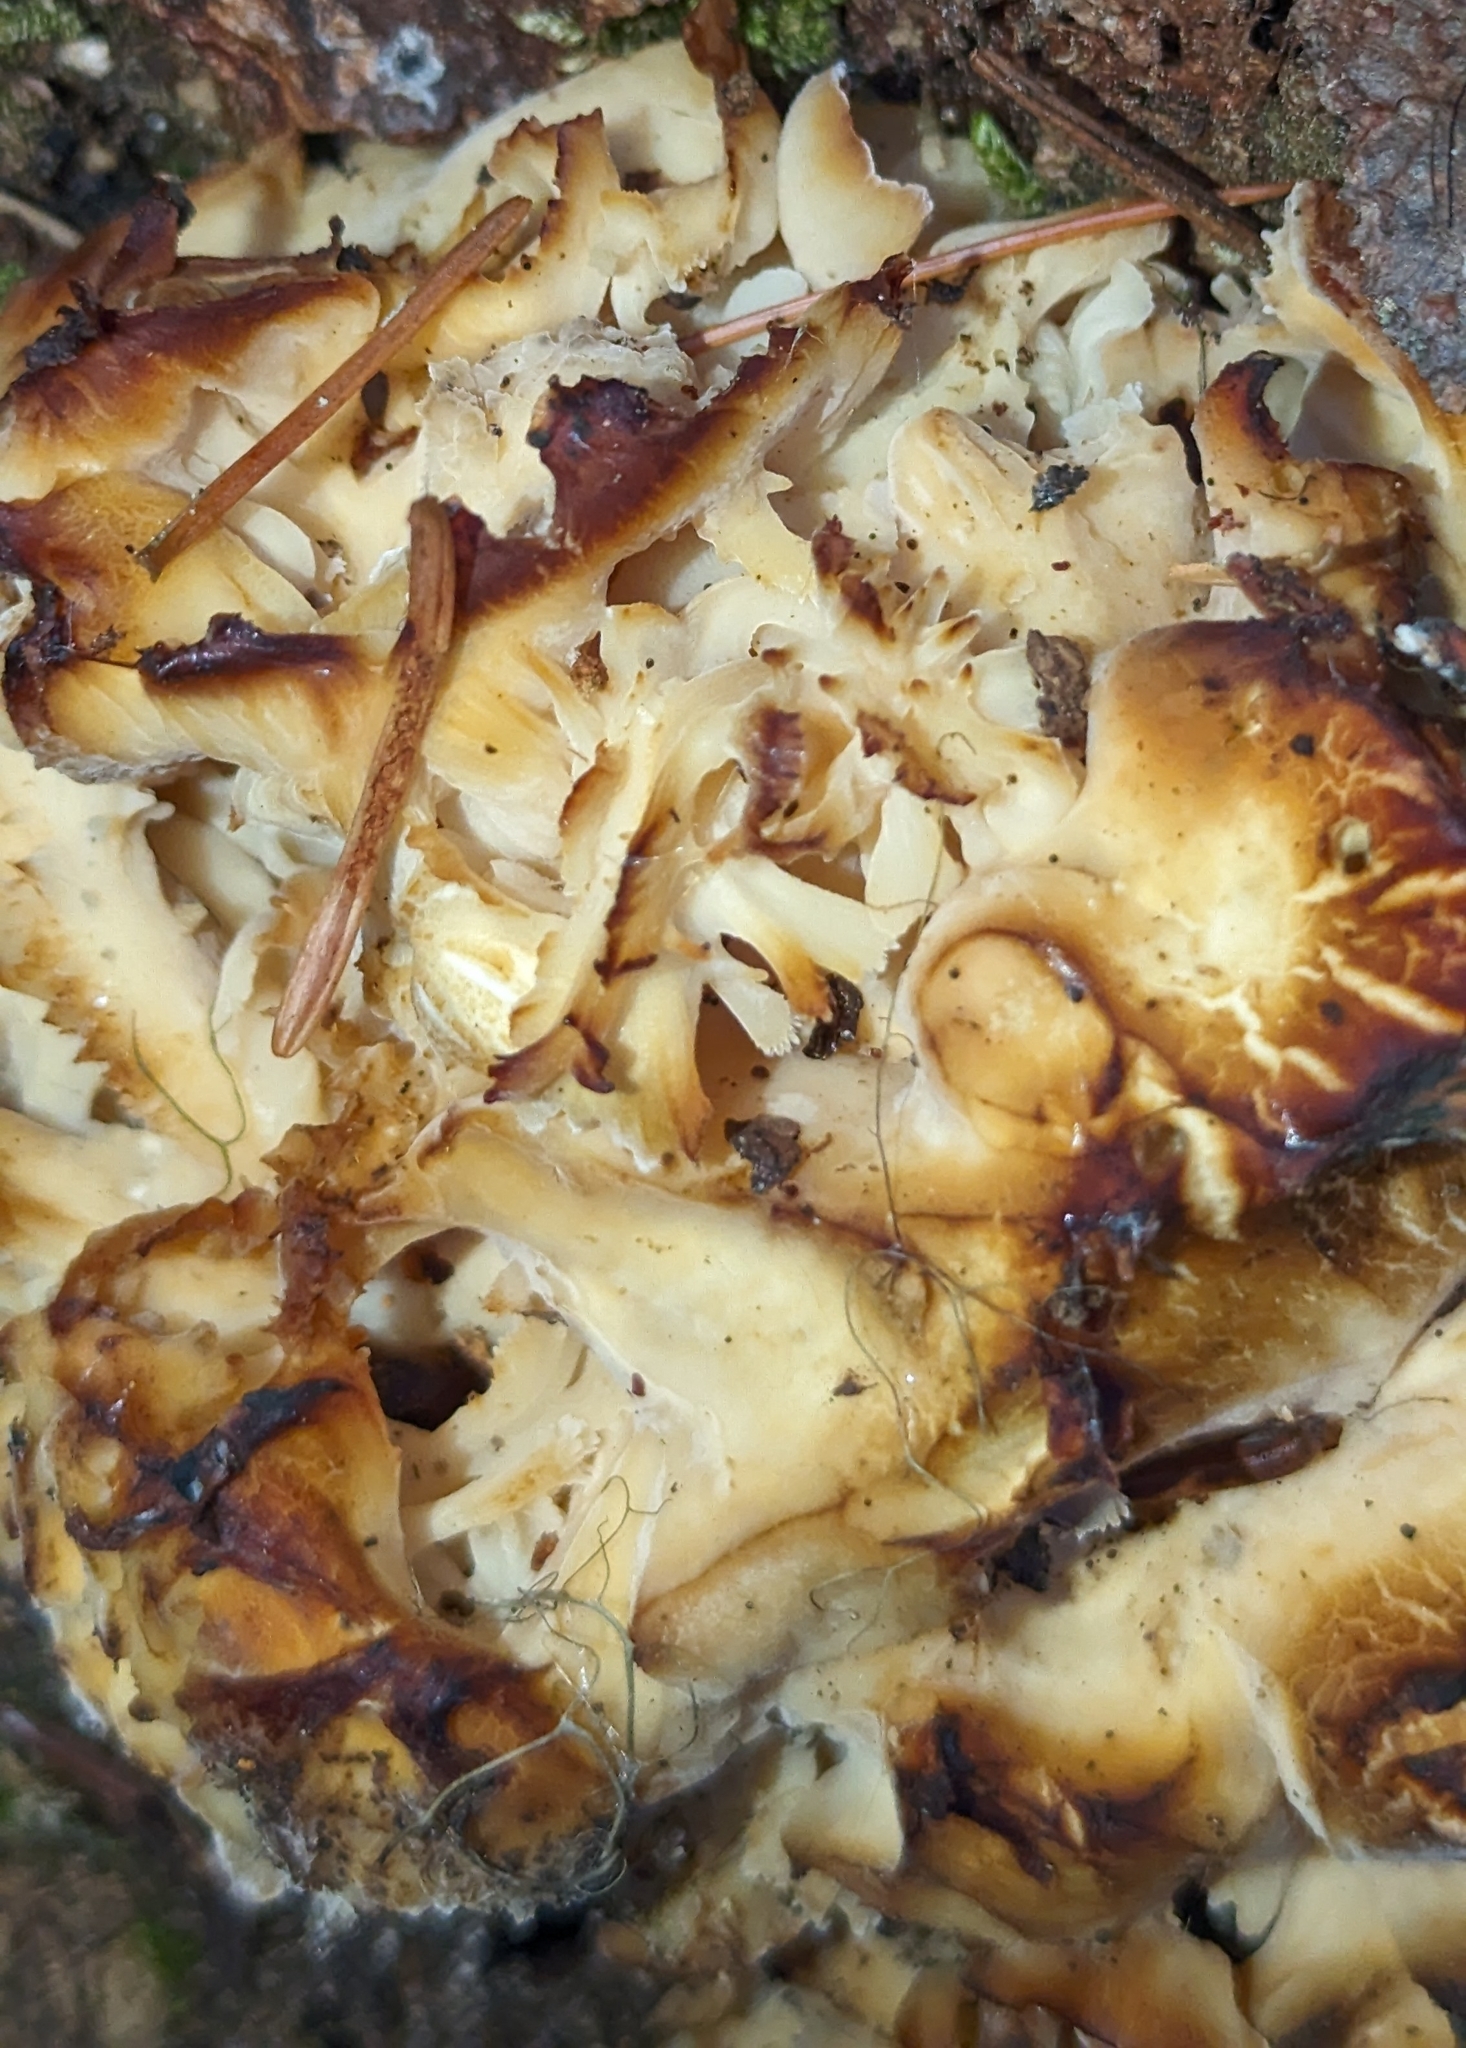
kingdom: Fungi
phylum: Basidiomycota
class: Agaricomycetes
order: Polyporales
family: Sparassidaceae
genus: Sparassis
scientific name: Sparassis radicata
